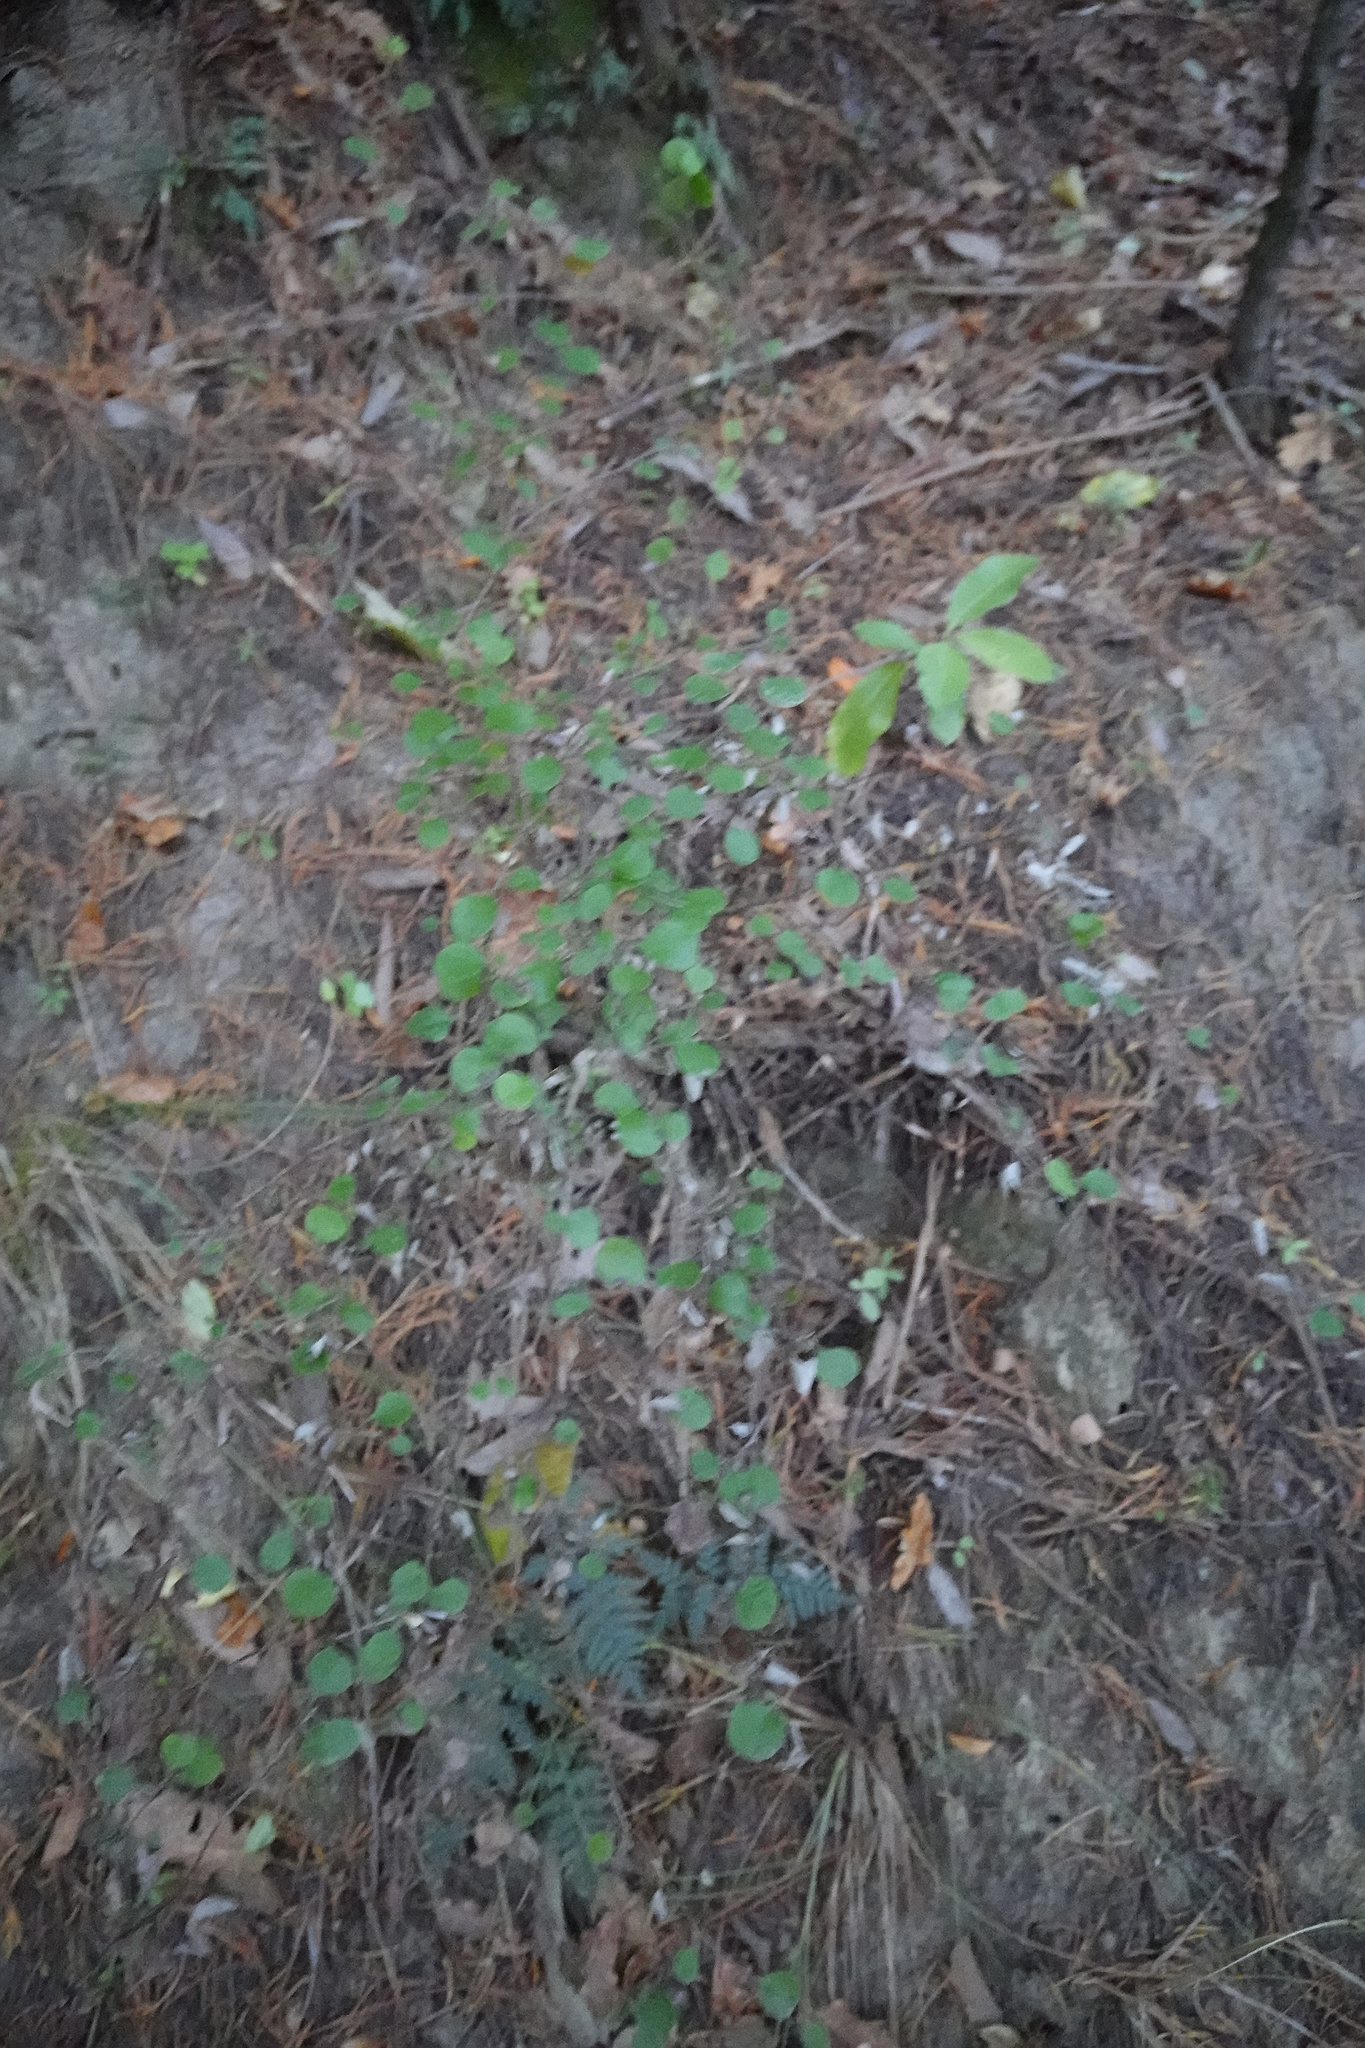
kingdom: Plantae
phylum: Tracheophyta
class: Magnoliopsida
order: Caryophyllales
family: Polygonaceae
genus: Muehlenbeckia
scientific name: Muehlenbeckia australis
